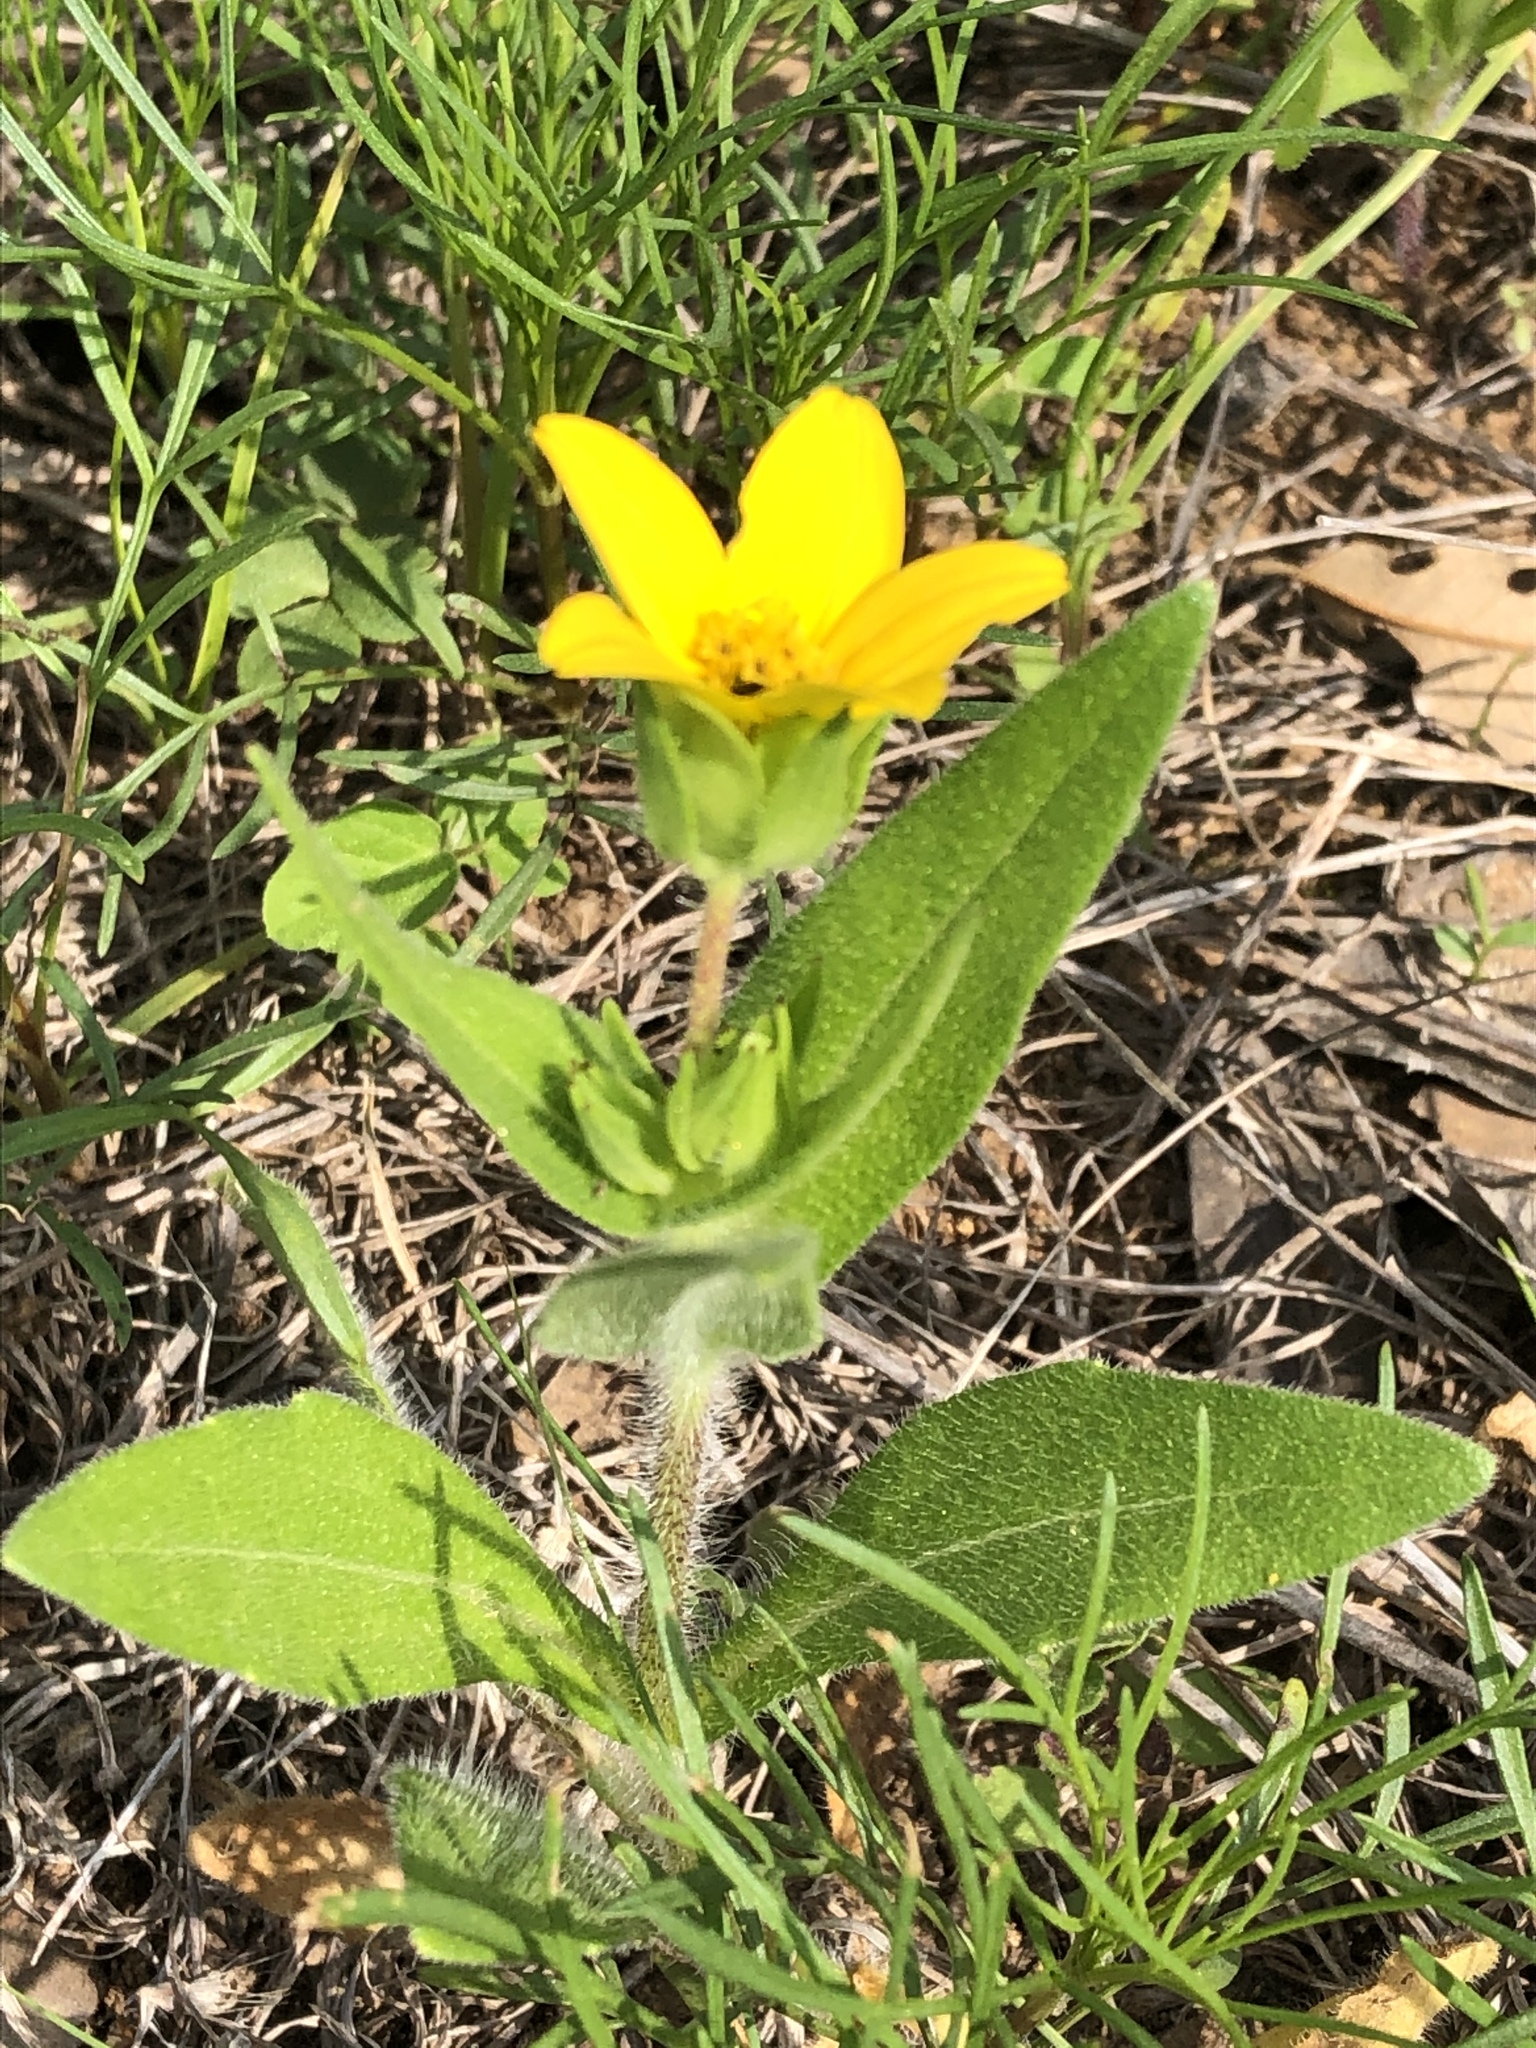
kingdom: Plantae
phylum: Tracheophyta
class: Magnoliopsida
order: Asterales
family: Asteraceae
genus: Lindheimera
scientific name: Lindheimera texana
